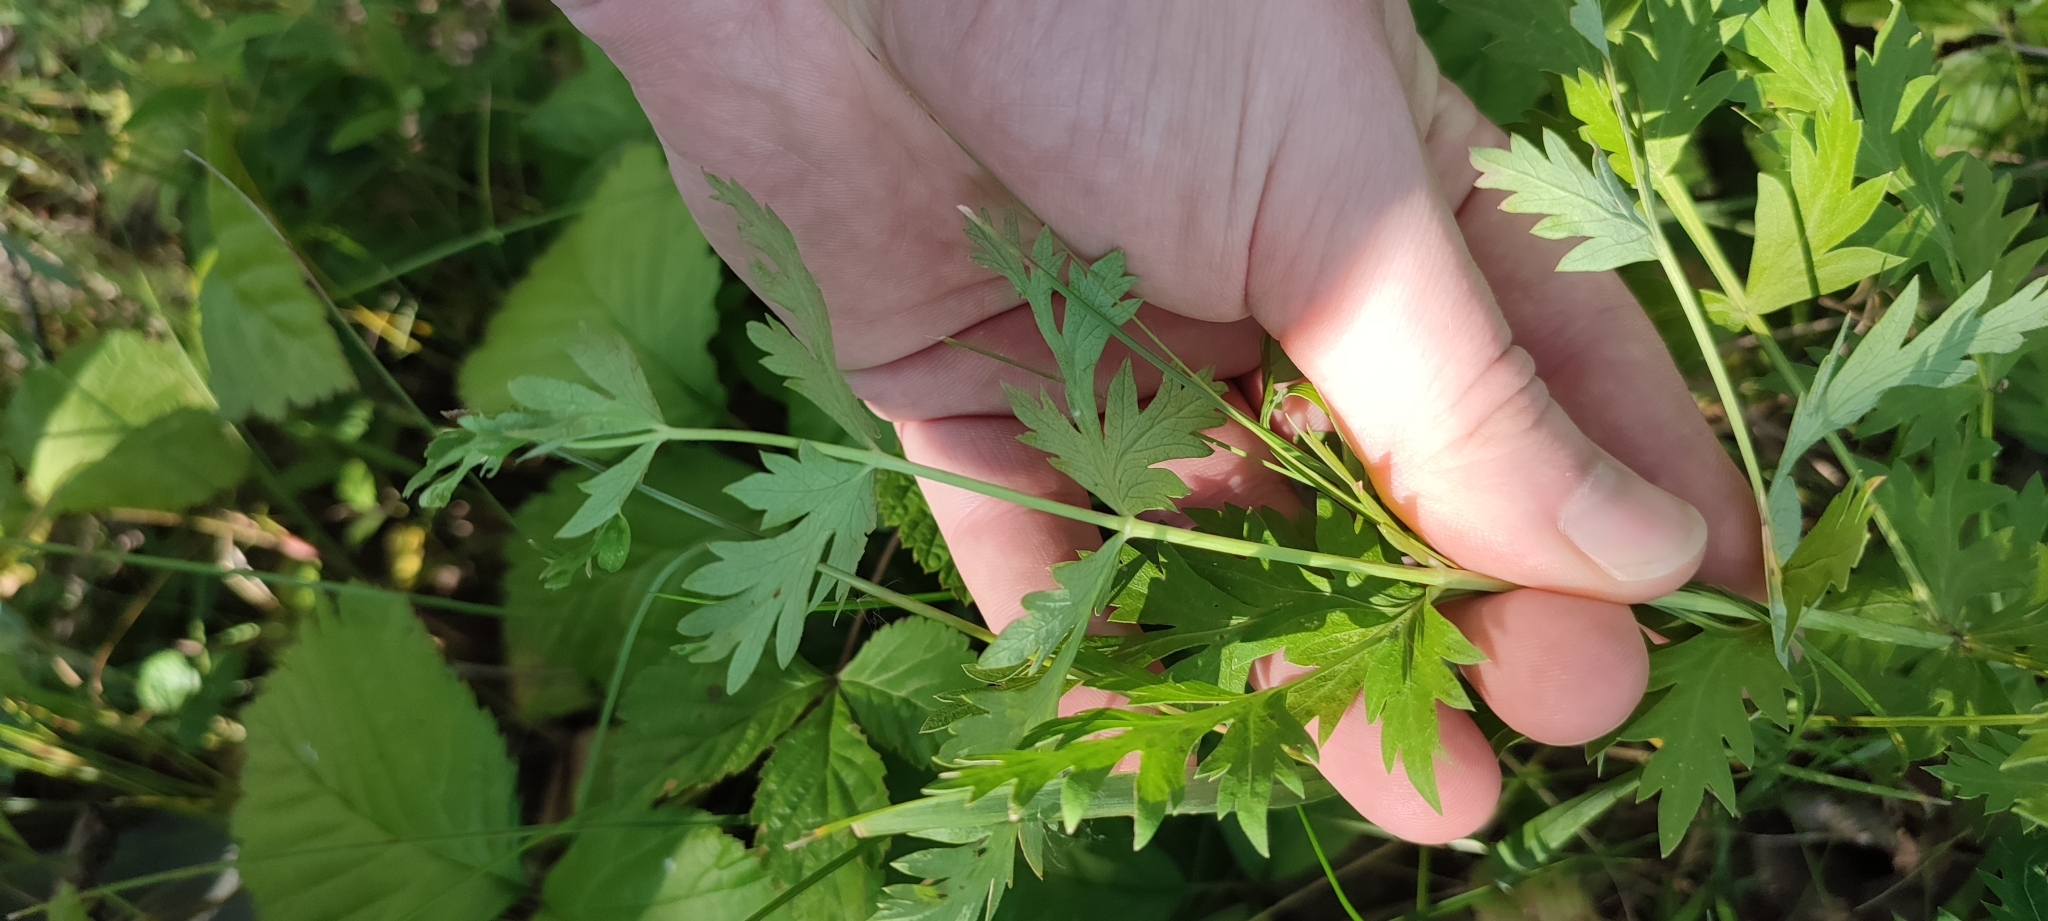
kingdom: Plantae
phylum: Tracheophyta
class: Magnoliopsida
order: Apiales
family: Apiaceae
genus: Seseli
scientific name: Seseli libanotis
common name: Mooncarrot
